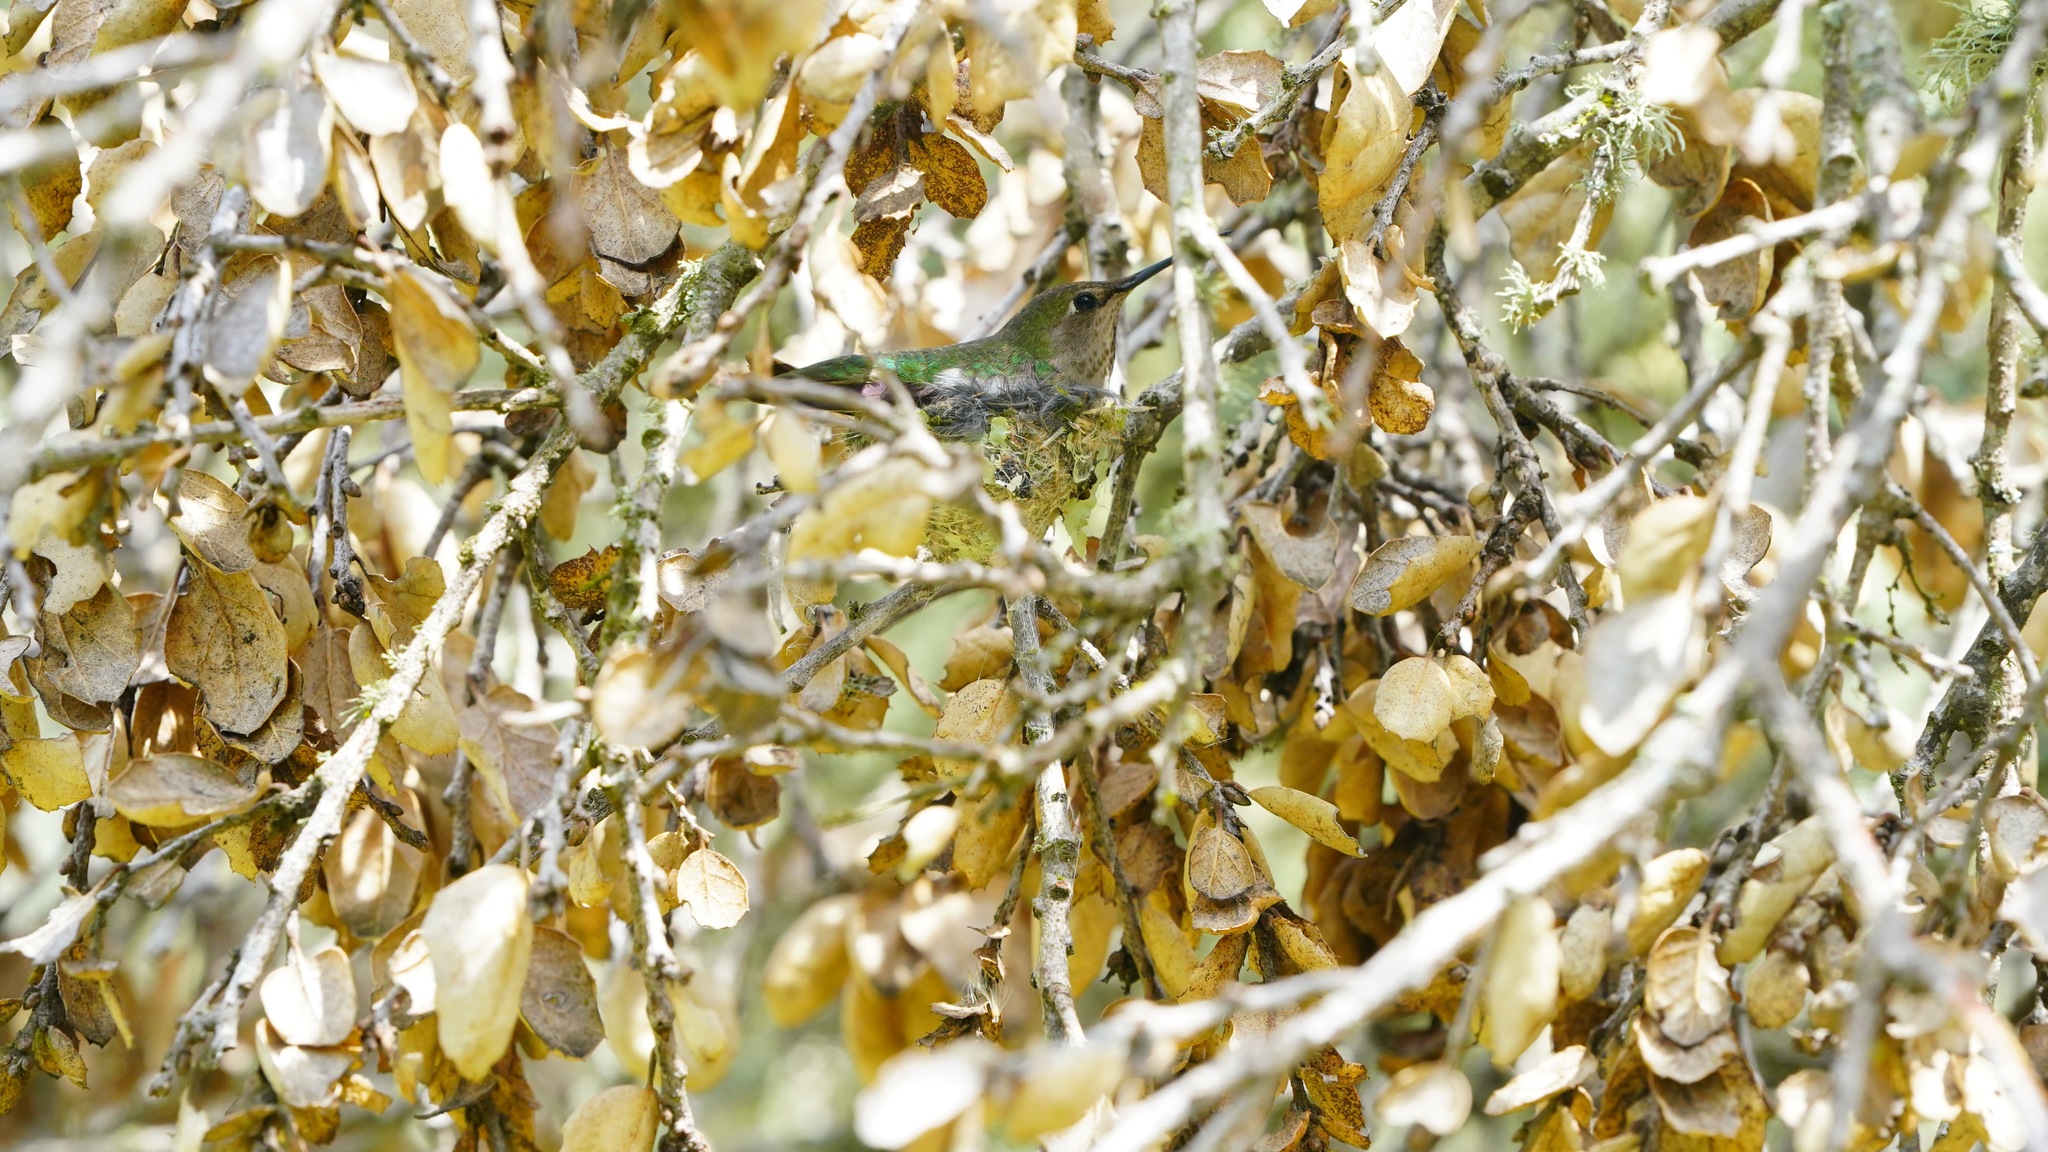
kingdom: Animalia
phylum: Chordata
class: Aves
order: Apodiformes
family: Trochilidae
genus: Calypte
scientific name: Calypte anna
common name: Anna's hummingbird
